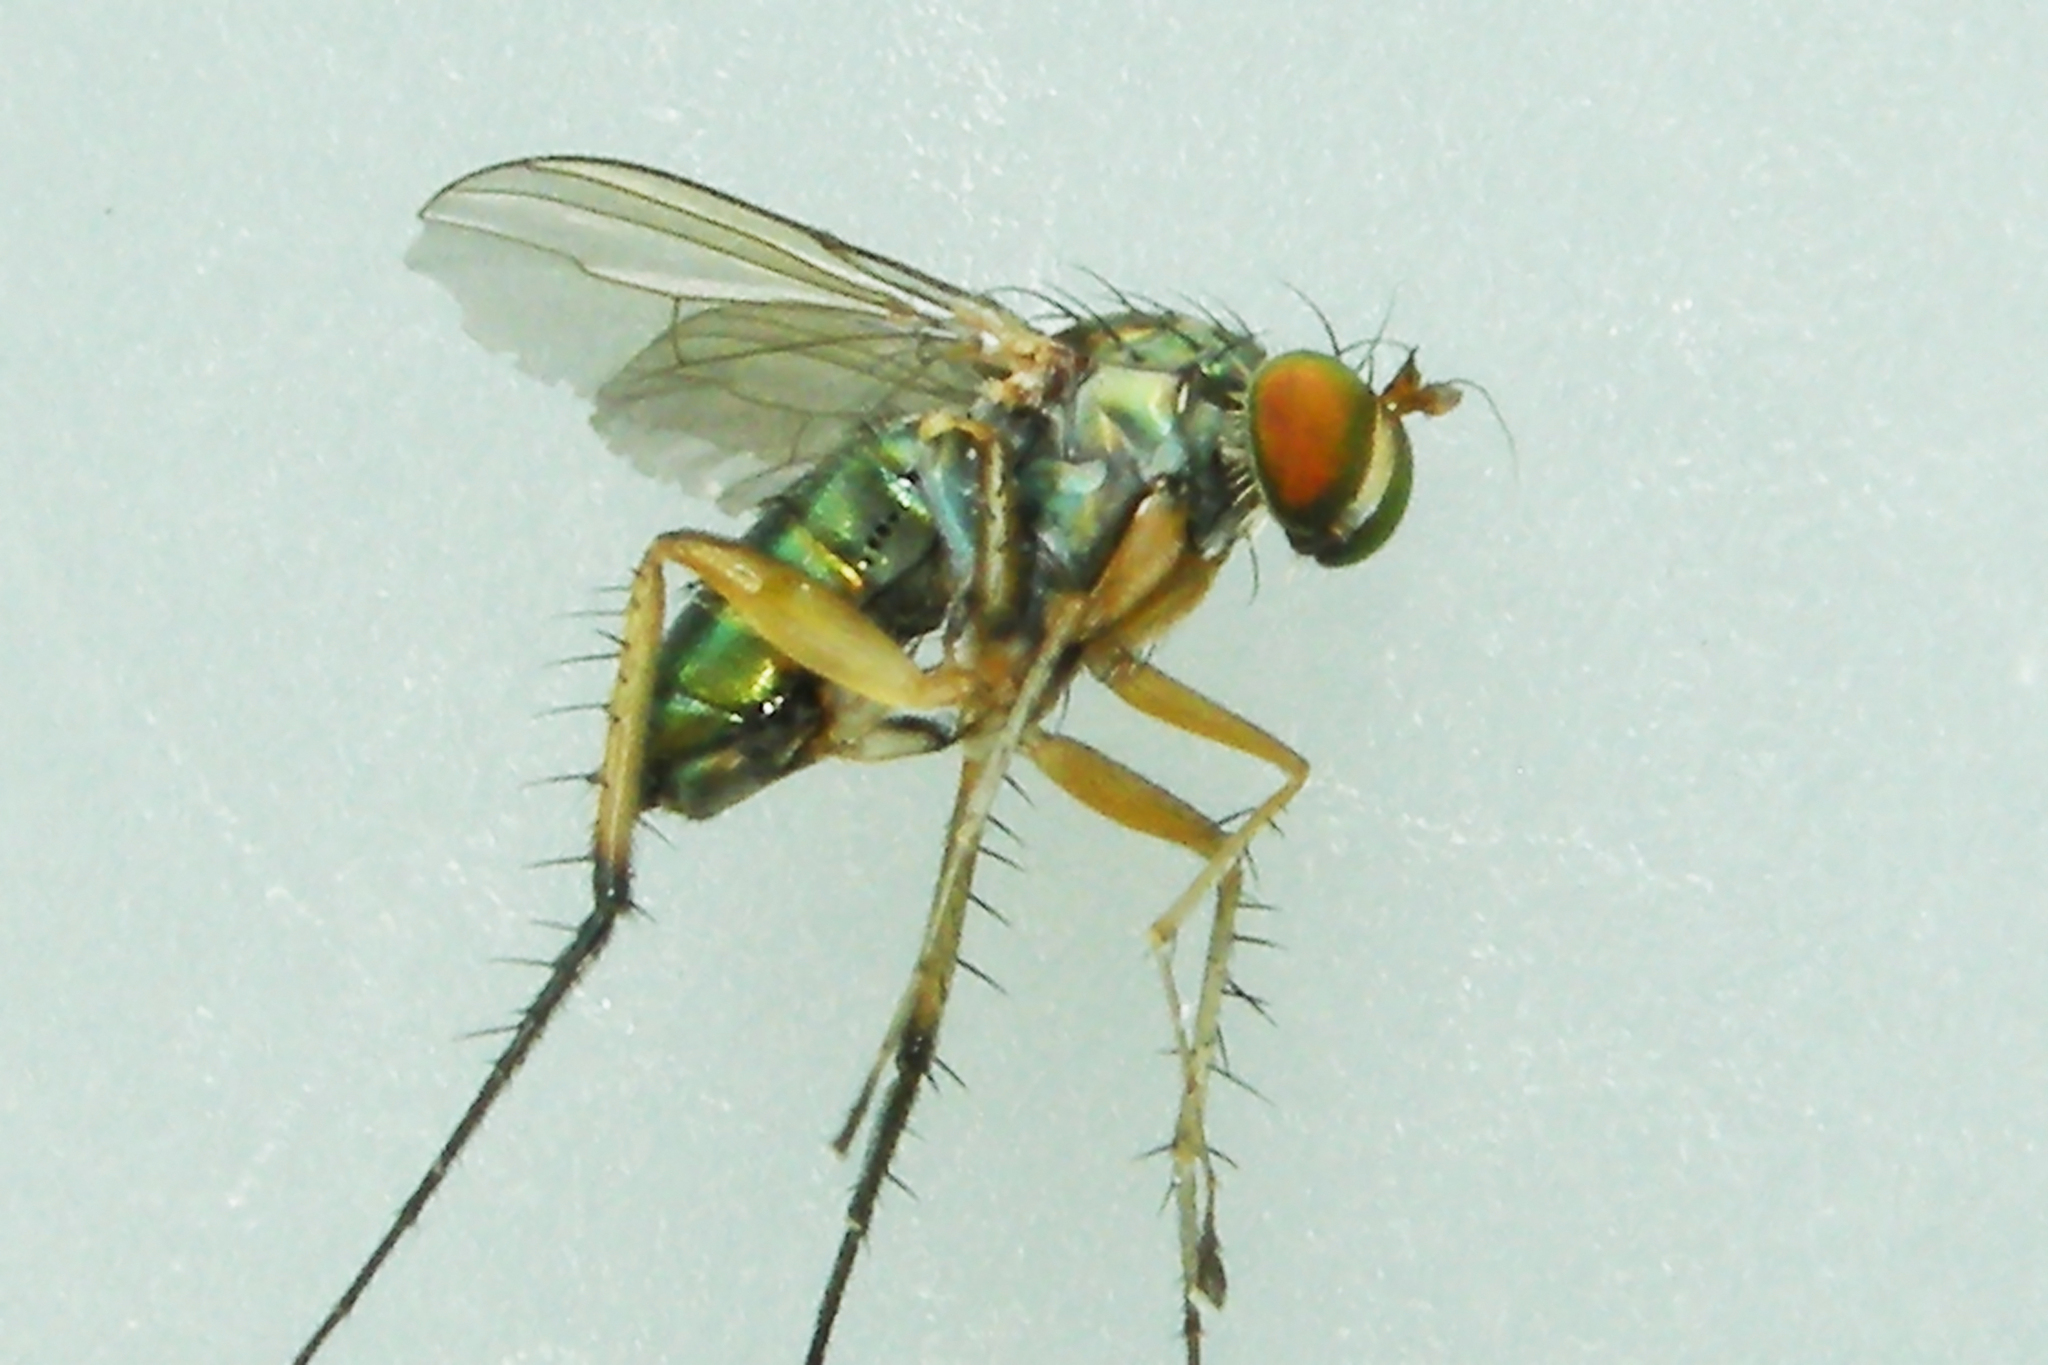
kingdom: Animalia
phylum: Arthropoda
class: Insecta
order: Diptera
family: Dolichopodidae
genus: Dolichopus
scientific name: Dolichopus vigilans
